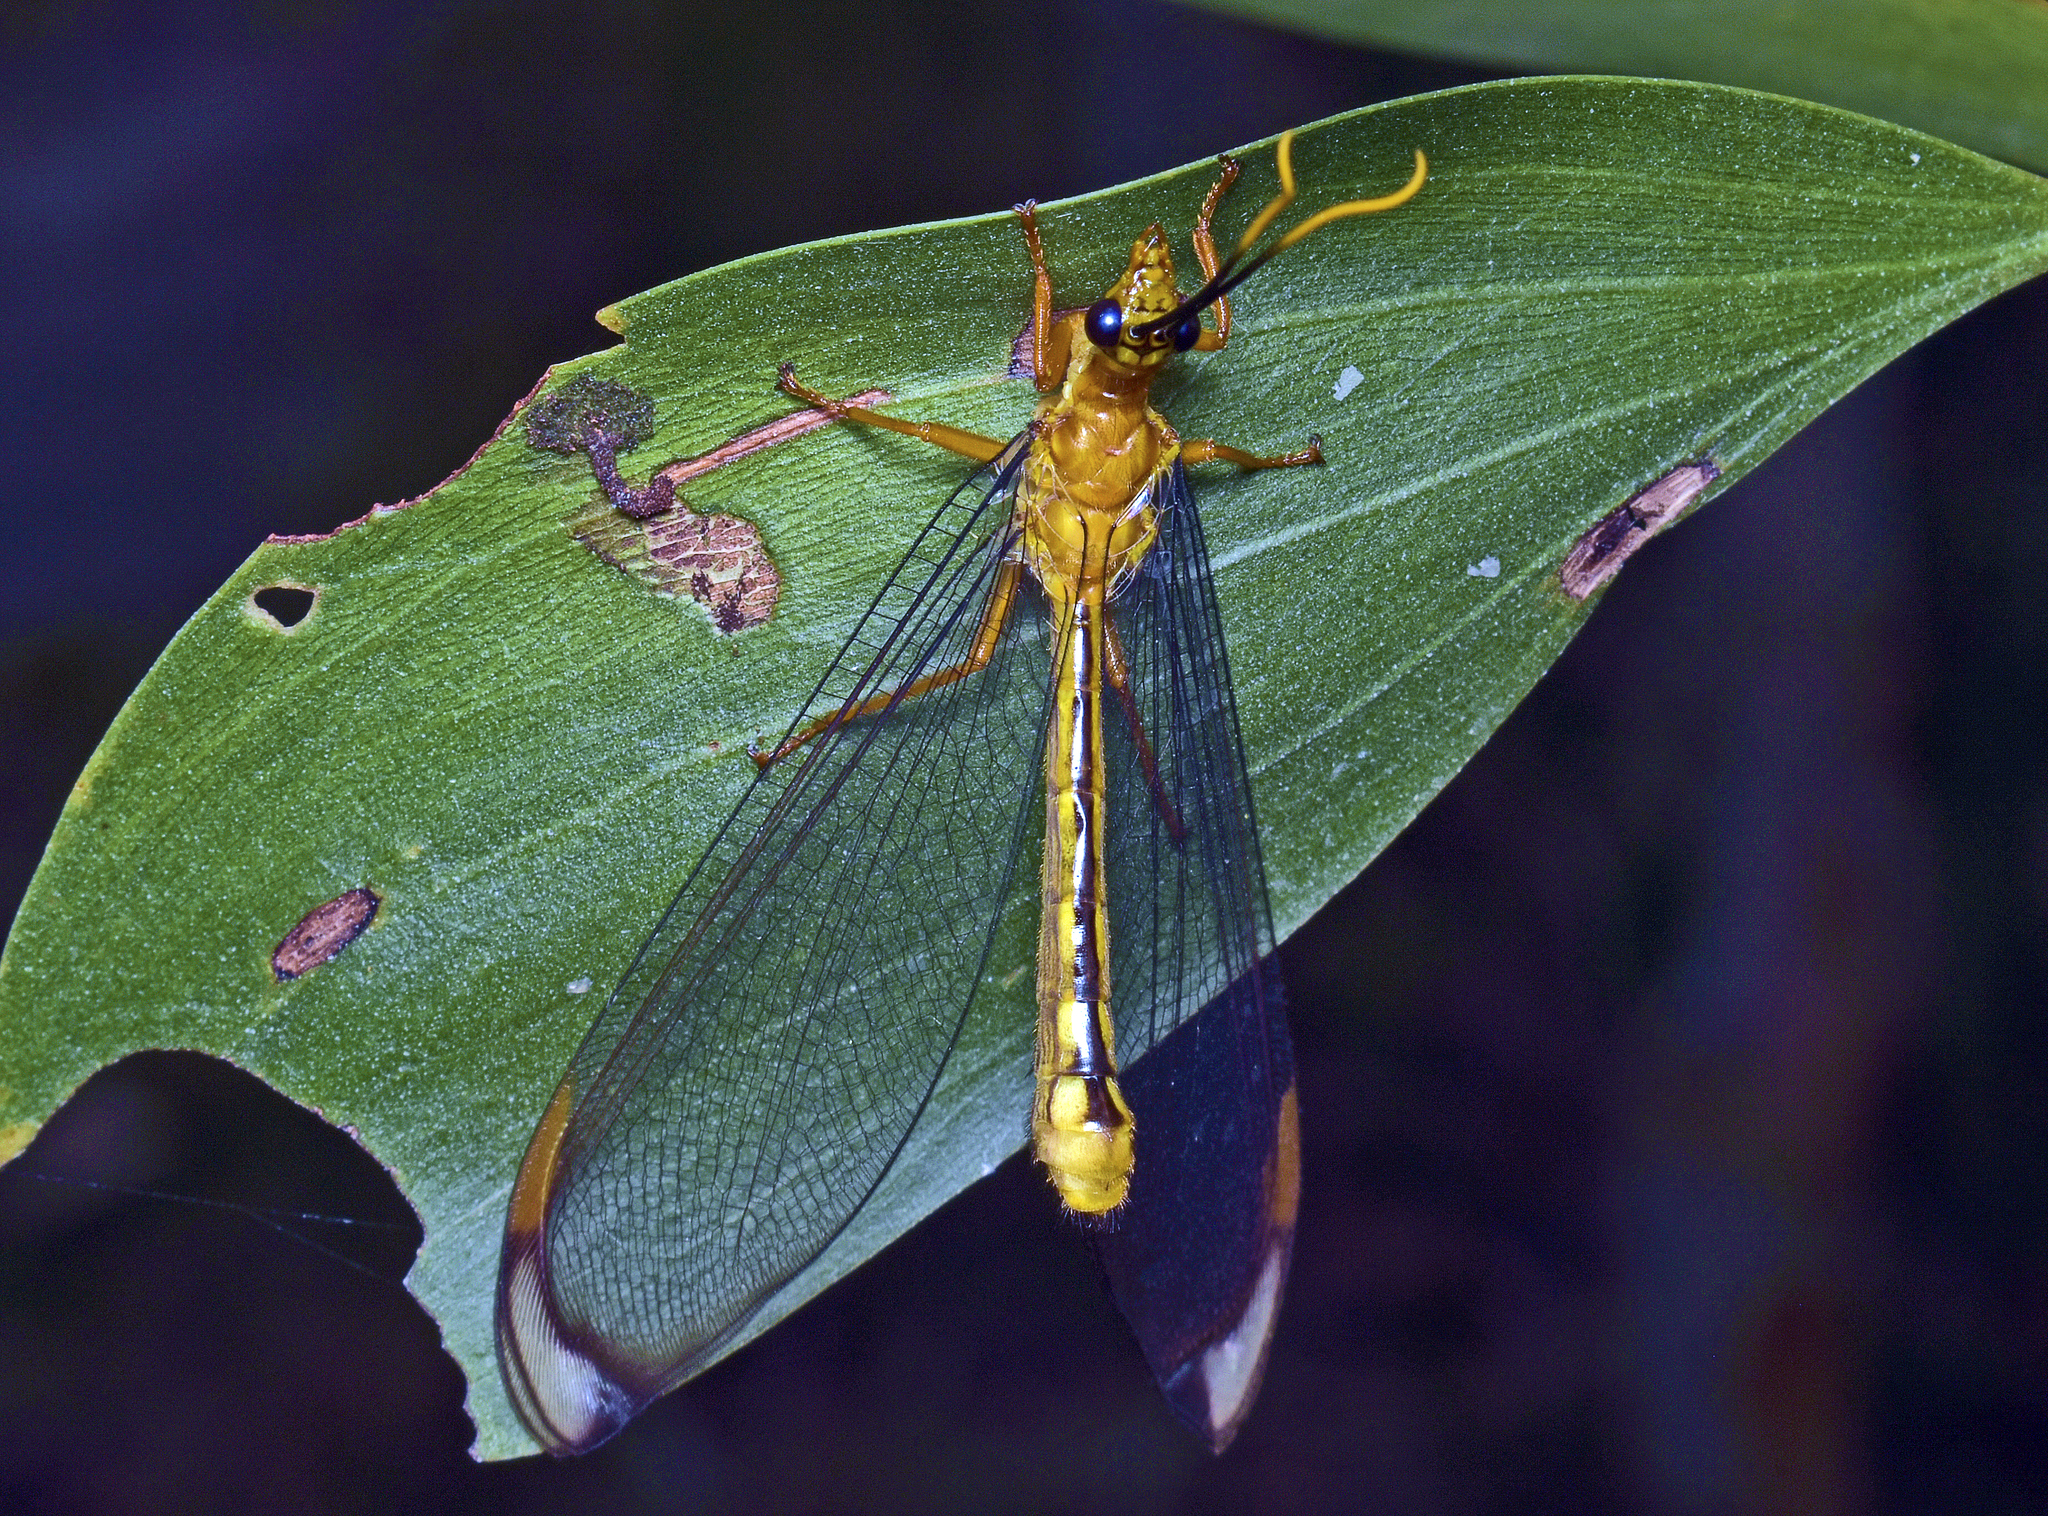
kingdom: Animalia
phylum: Arthropoda
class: Insecta
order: Neuroptera
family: Nymphidae
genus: Nymphes
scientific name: Nymphes myrmeleonoides
